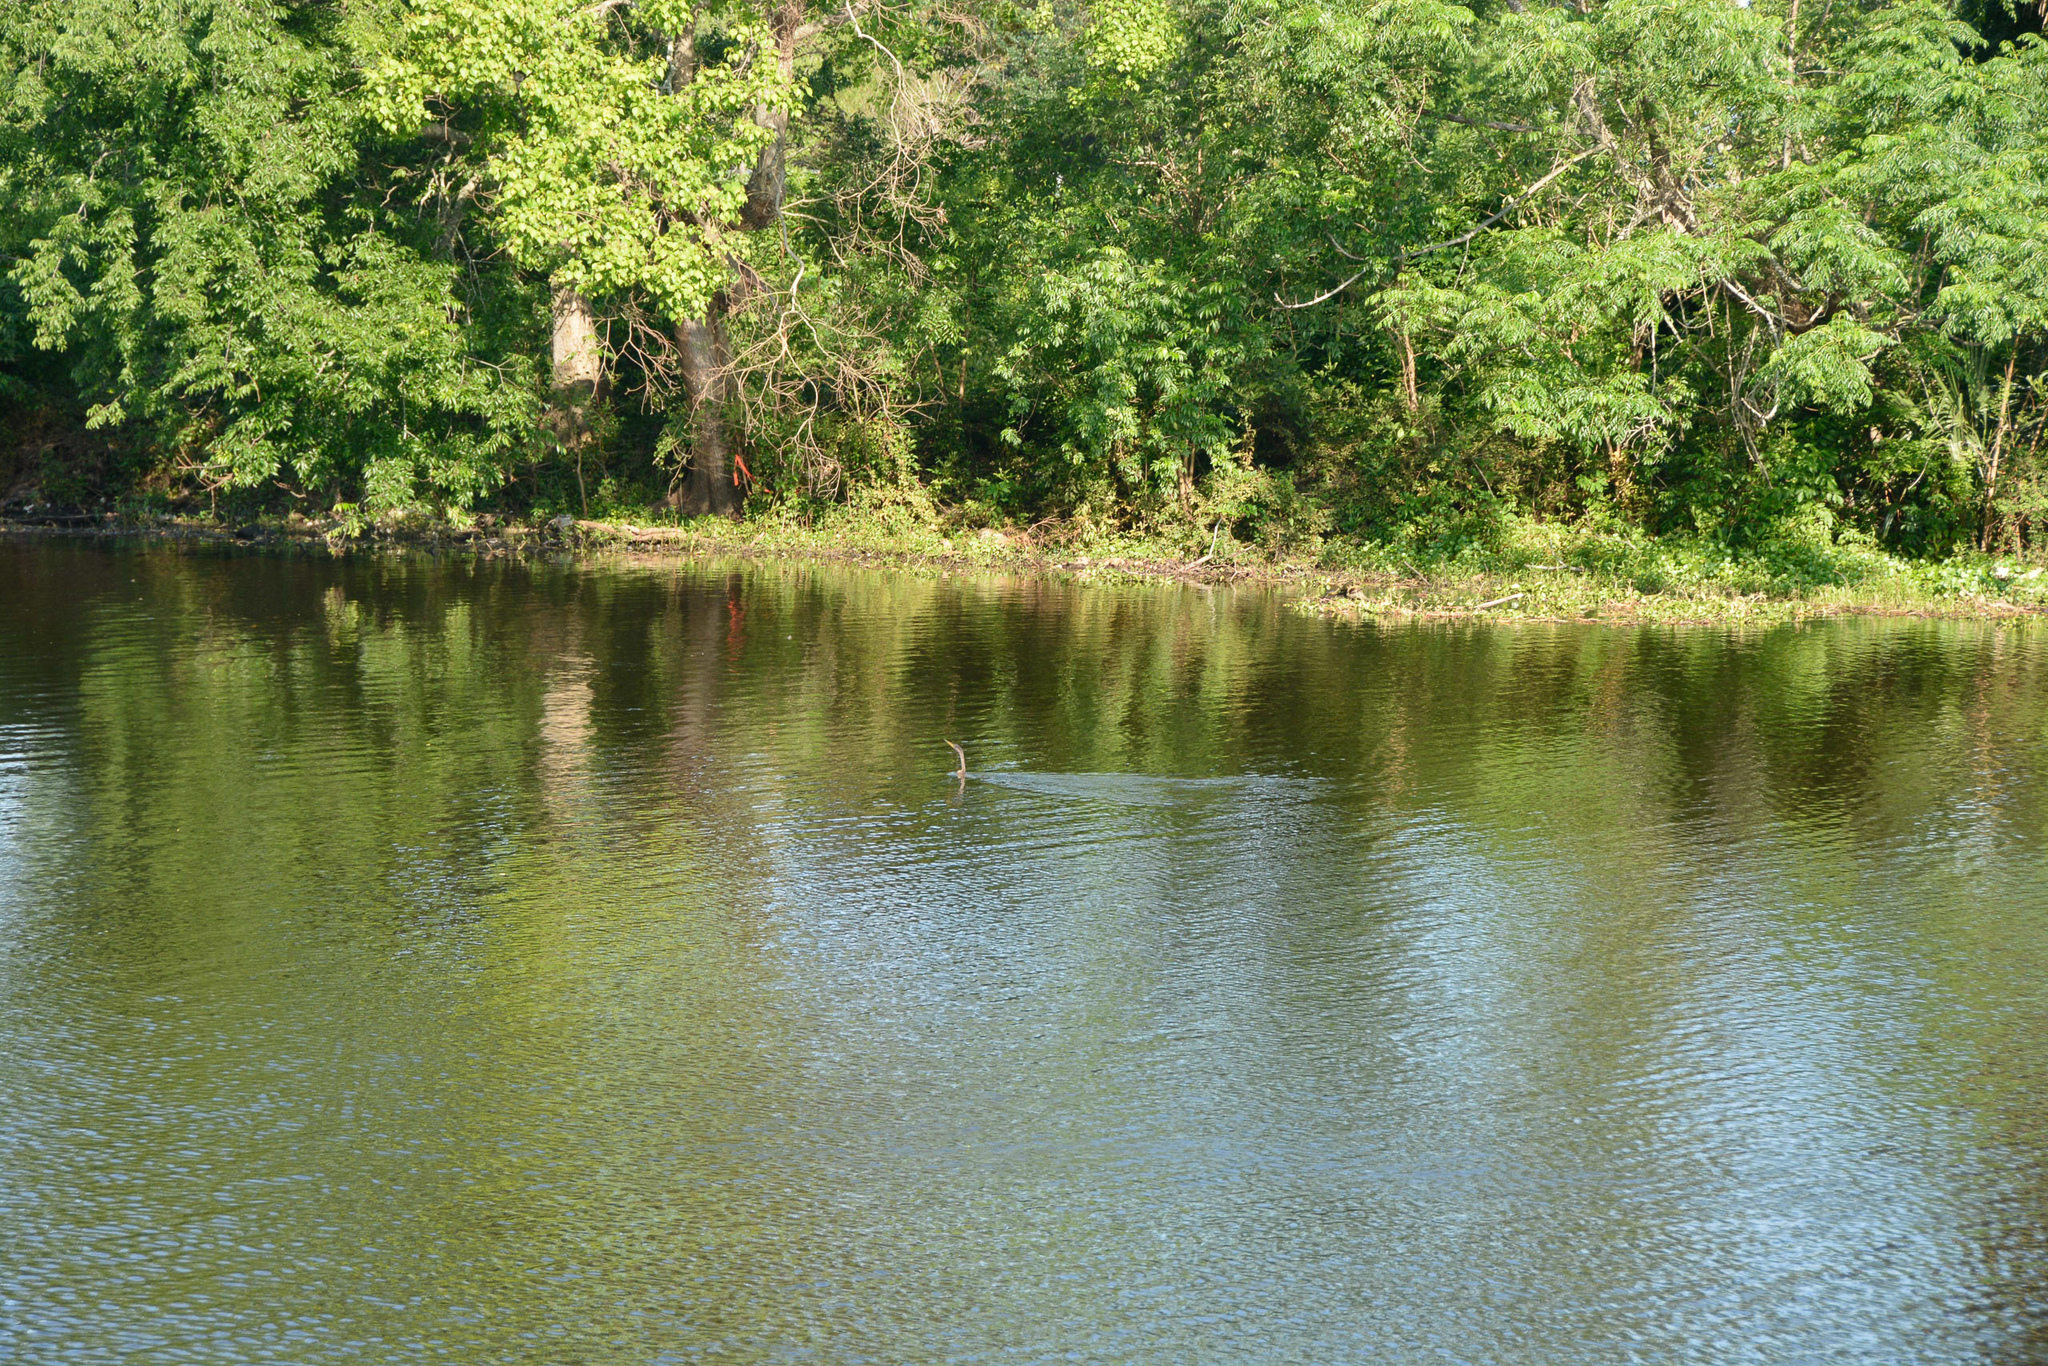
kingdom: Animalia
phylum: Chordata
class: Aves
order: Suliformes
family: Anhingidae
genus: Anhinga
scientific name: Anhinga anhinga
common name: Anhinga
